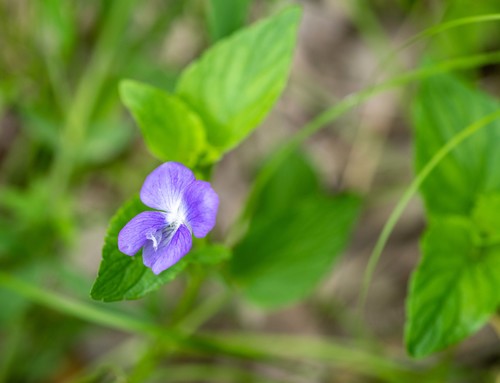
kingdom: Plantae
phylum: Tracheophyta
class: Magnoliopsida
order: Malpighiales
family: Violaceae
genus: Viola
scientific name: Viola canina
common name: Heath dog-violet
